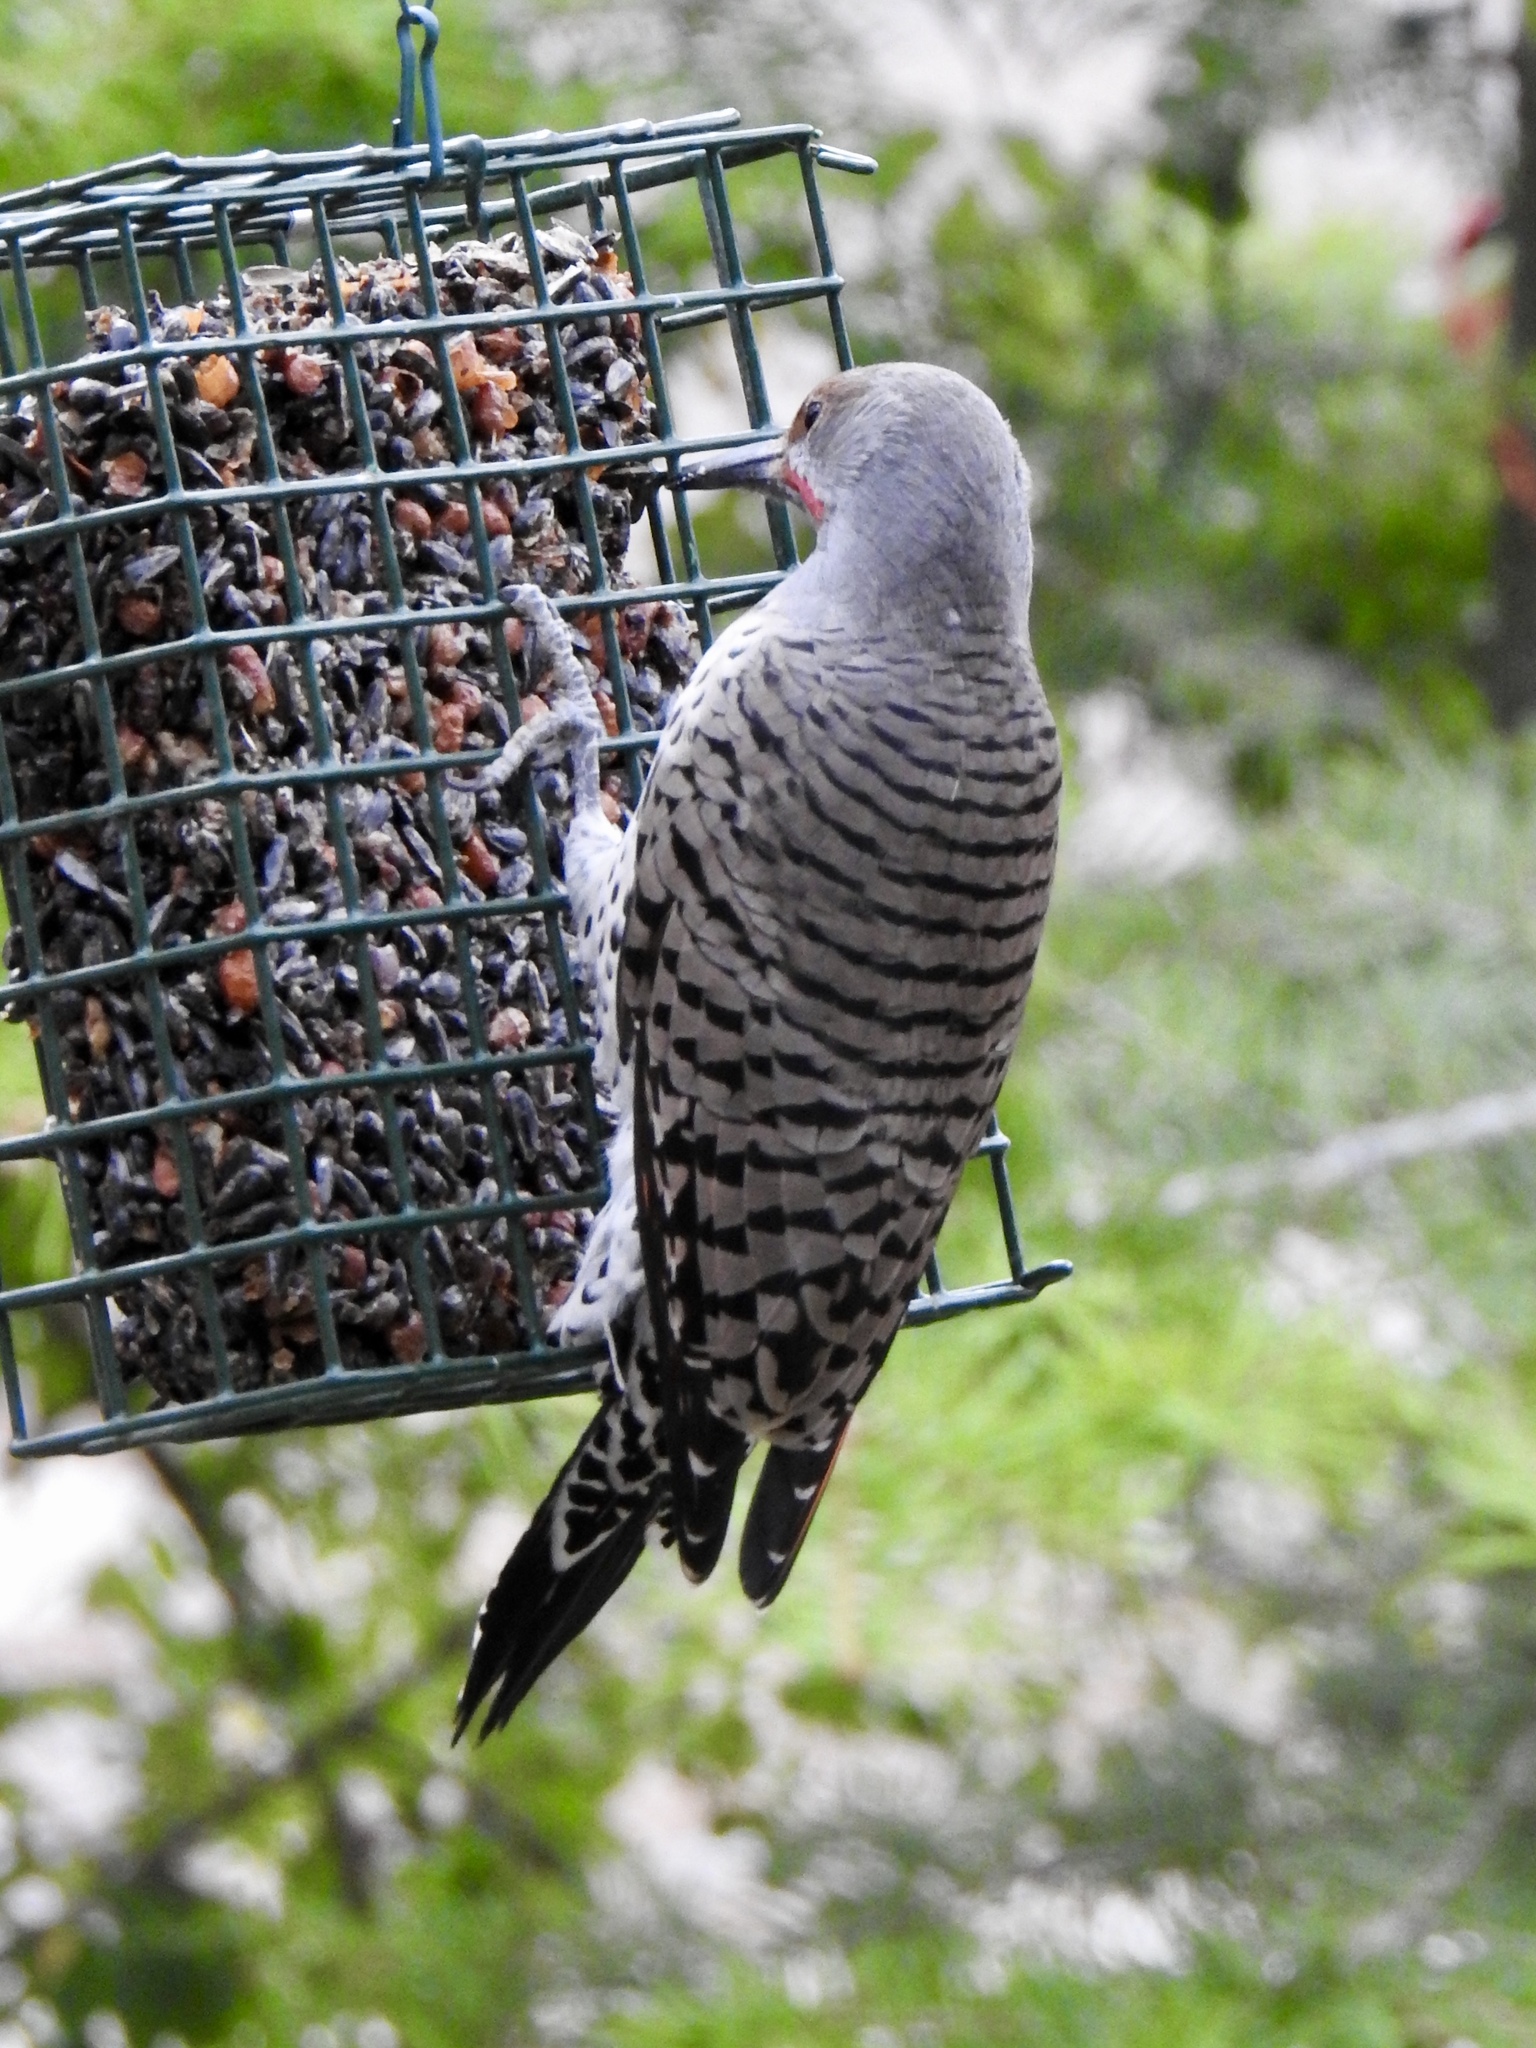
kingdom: Animalia
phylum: Chordata
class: Aves
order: Piciformes
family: Picidae
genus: Colaptes
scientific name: Colaptes auratus
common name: Northern flicker
